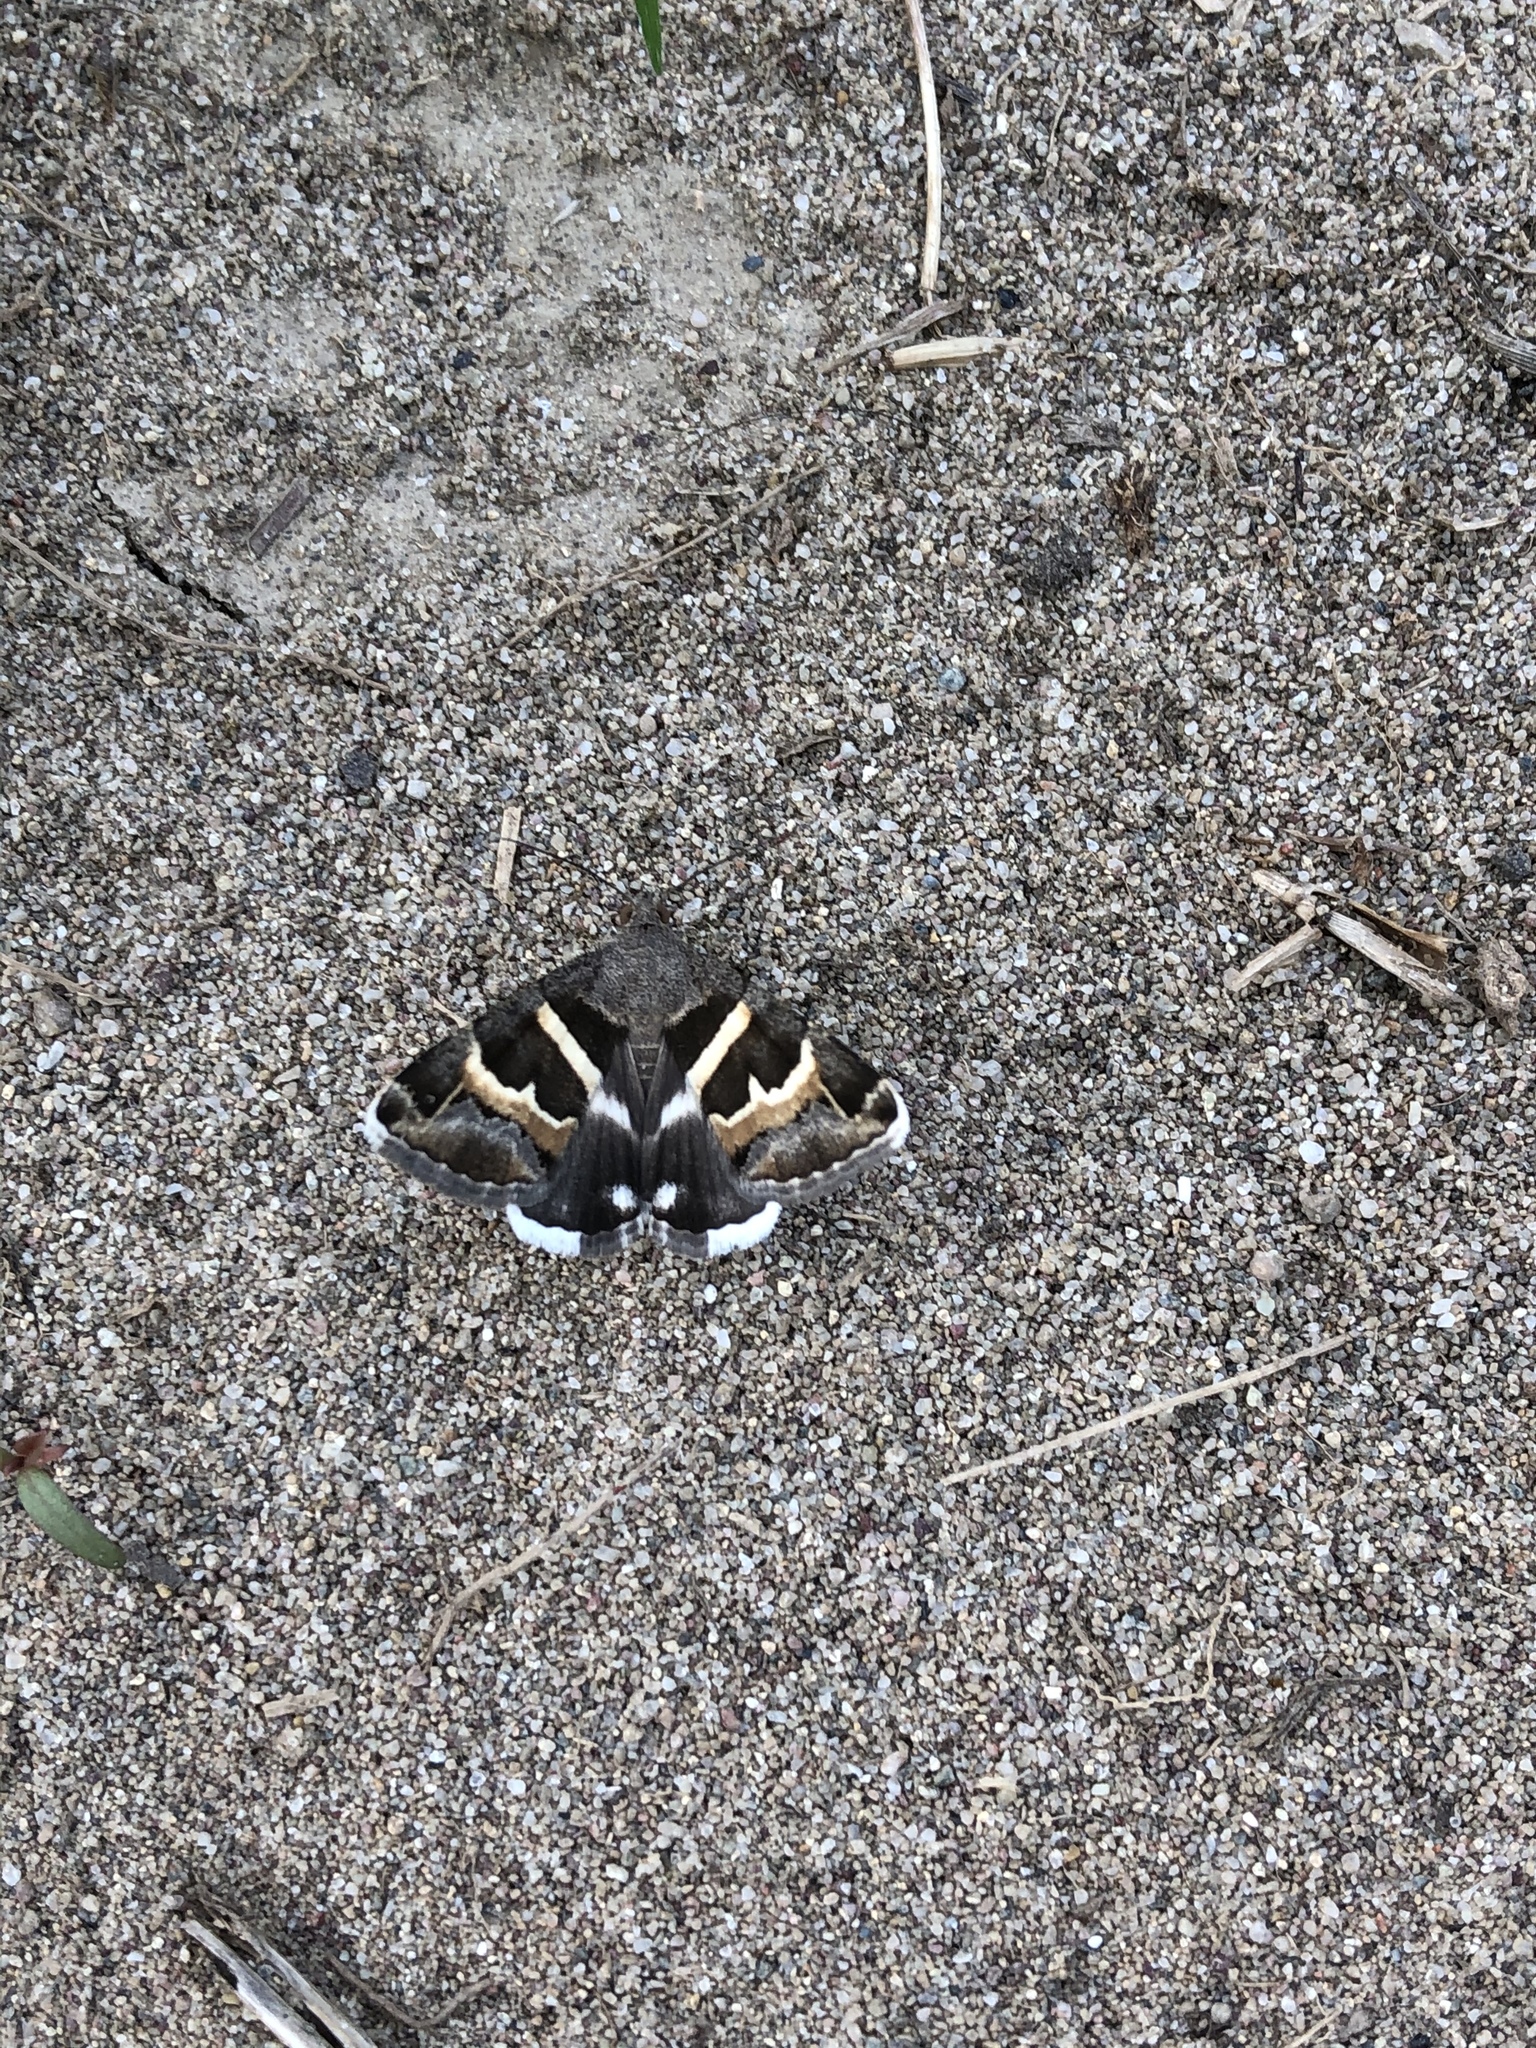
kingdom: Animalia
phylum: Arthropoda
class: Insecta
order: Lepidoptera
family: Erebidae
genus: Grammodes
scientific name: Grammodes stolida
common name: Geometrician
